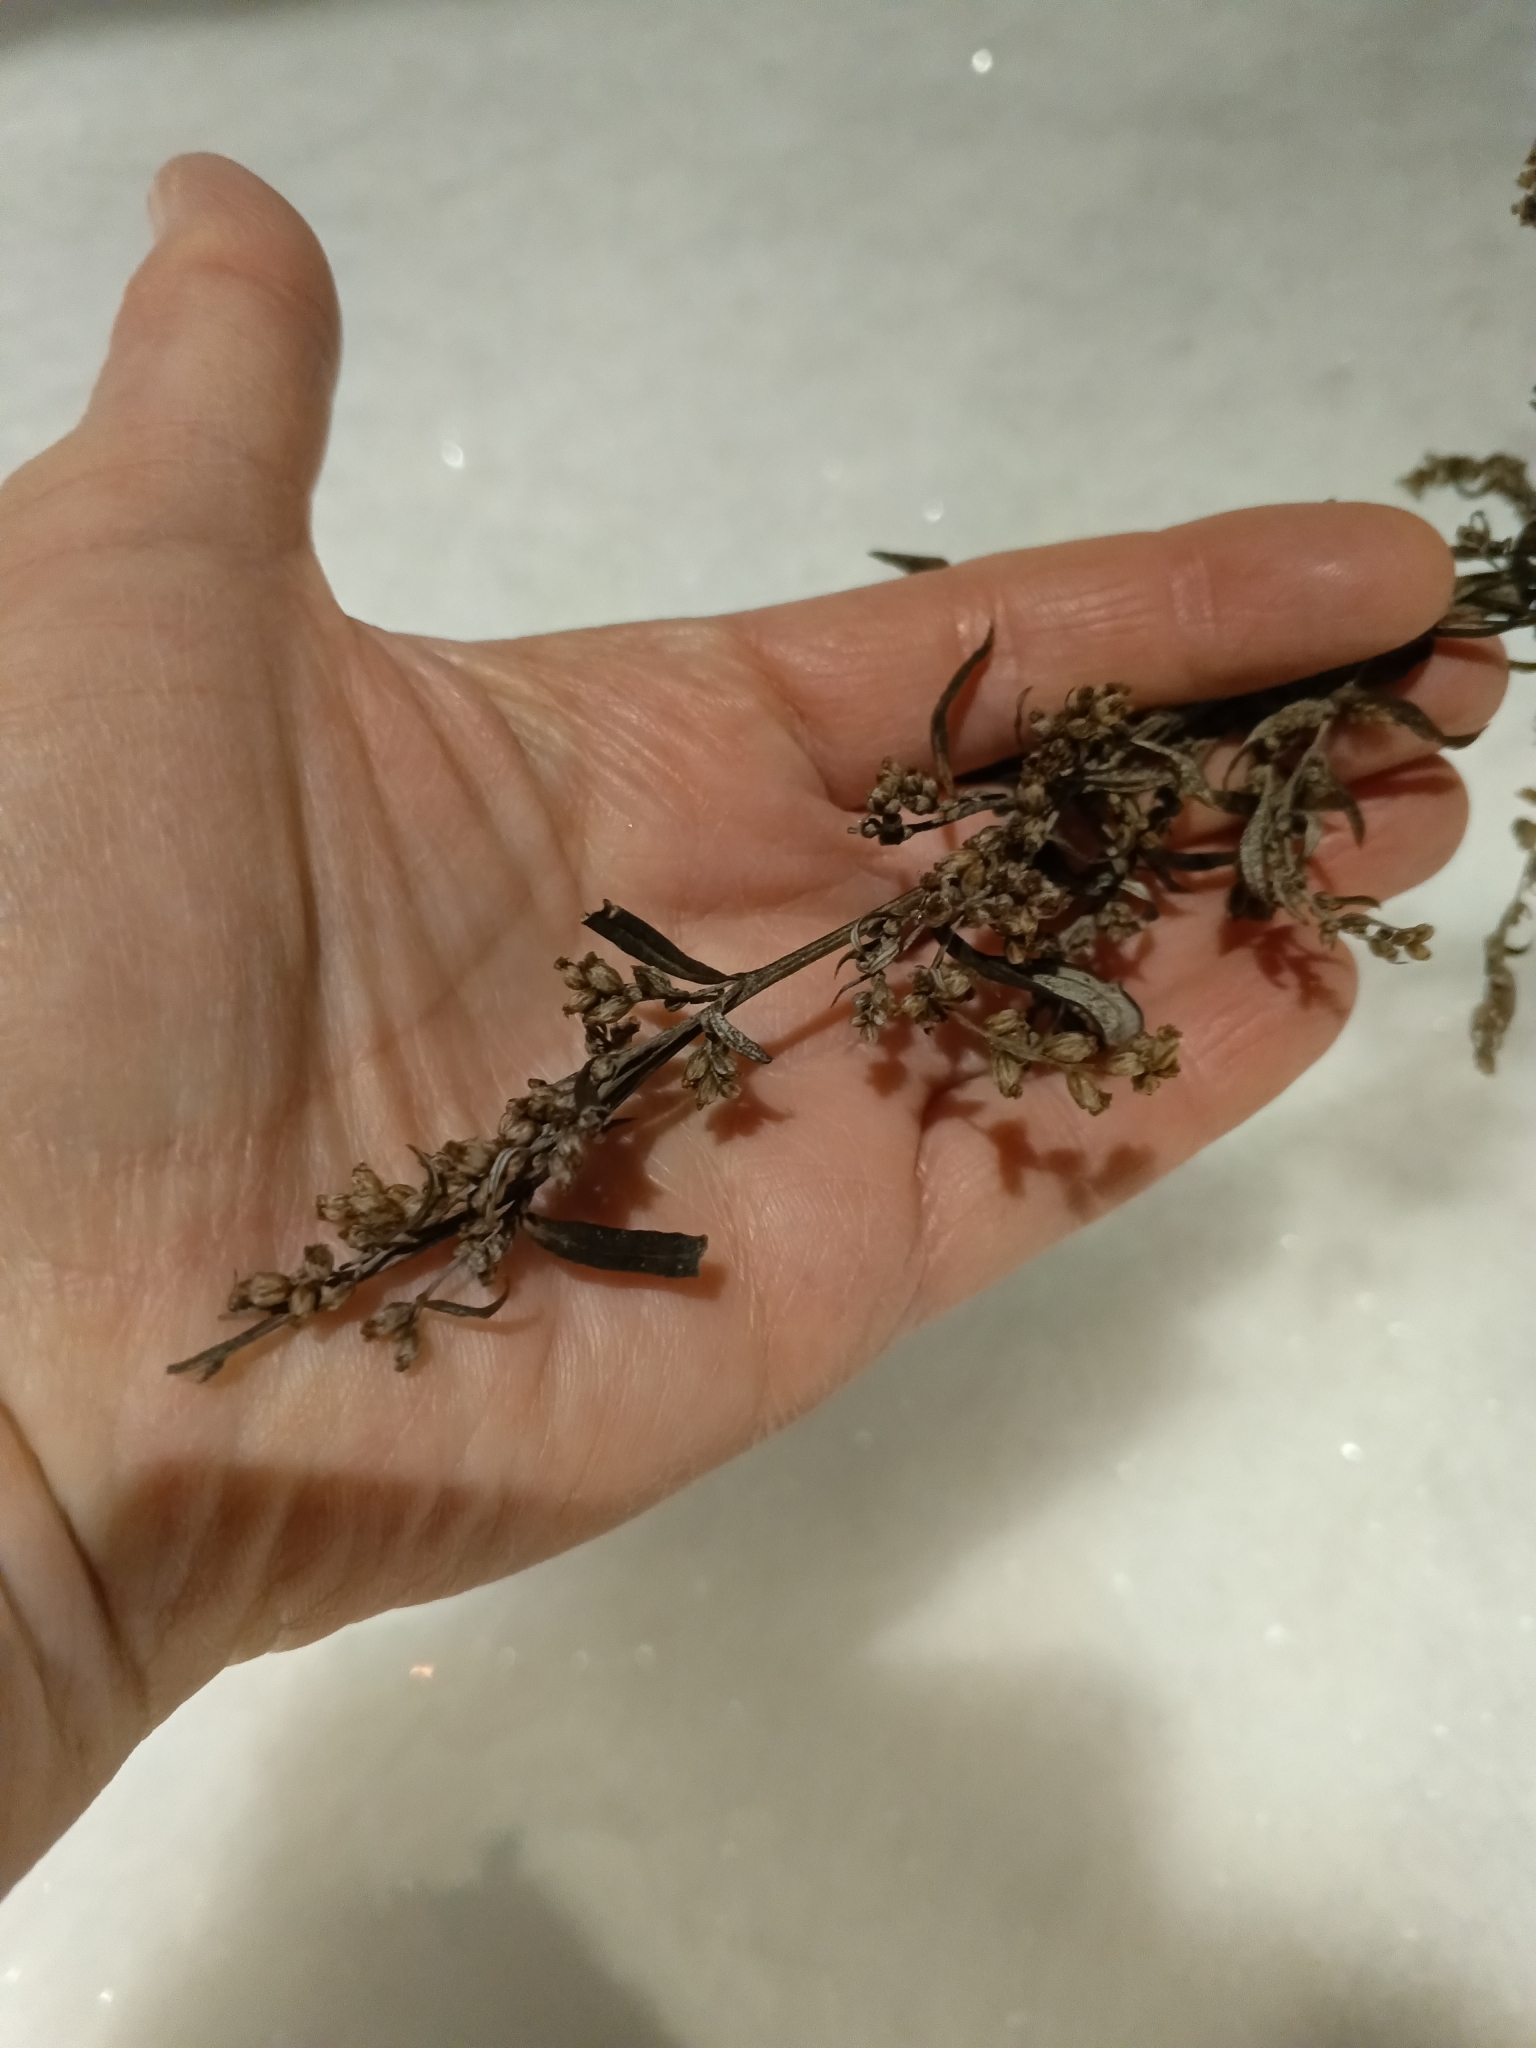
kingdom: Plantae
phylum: Tracheophyta
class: Magnoliopsida
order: Asterales
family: Asteraceae
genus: Artemisia
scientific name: Artemisia vulgaris
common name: Mugwort
